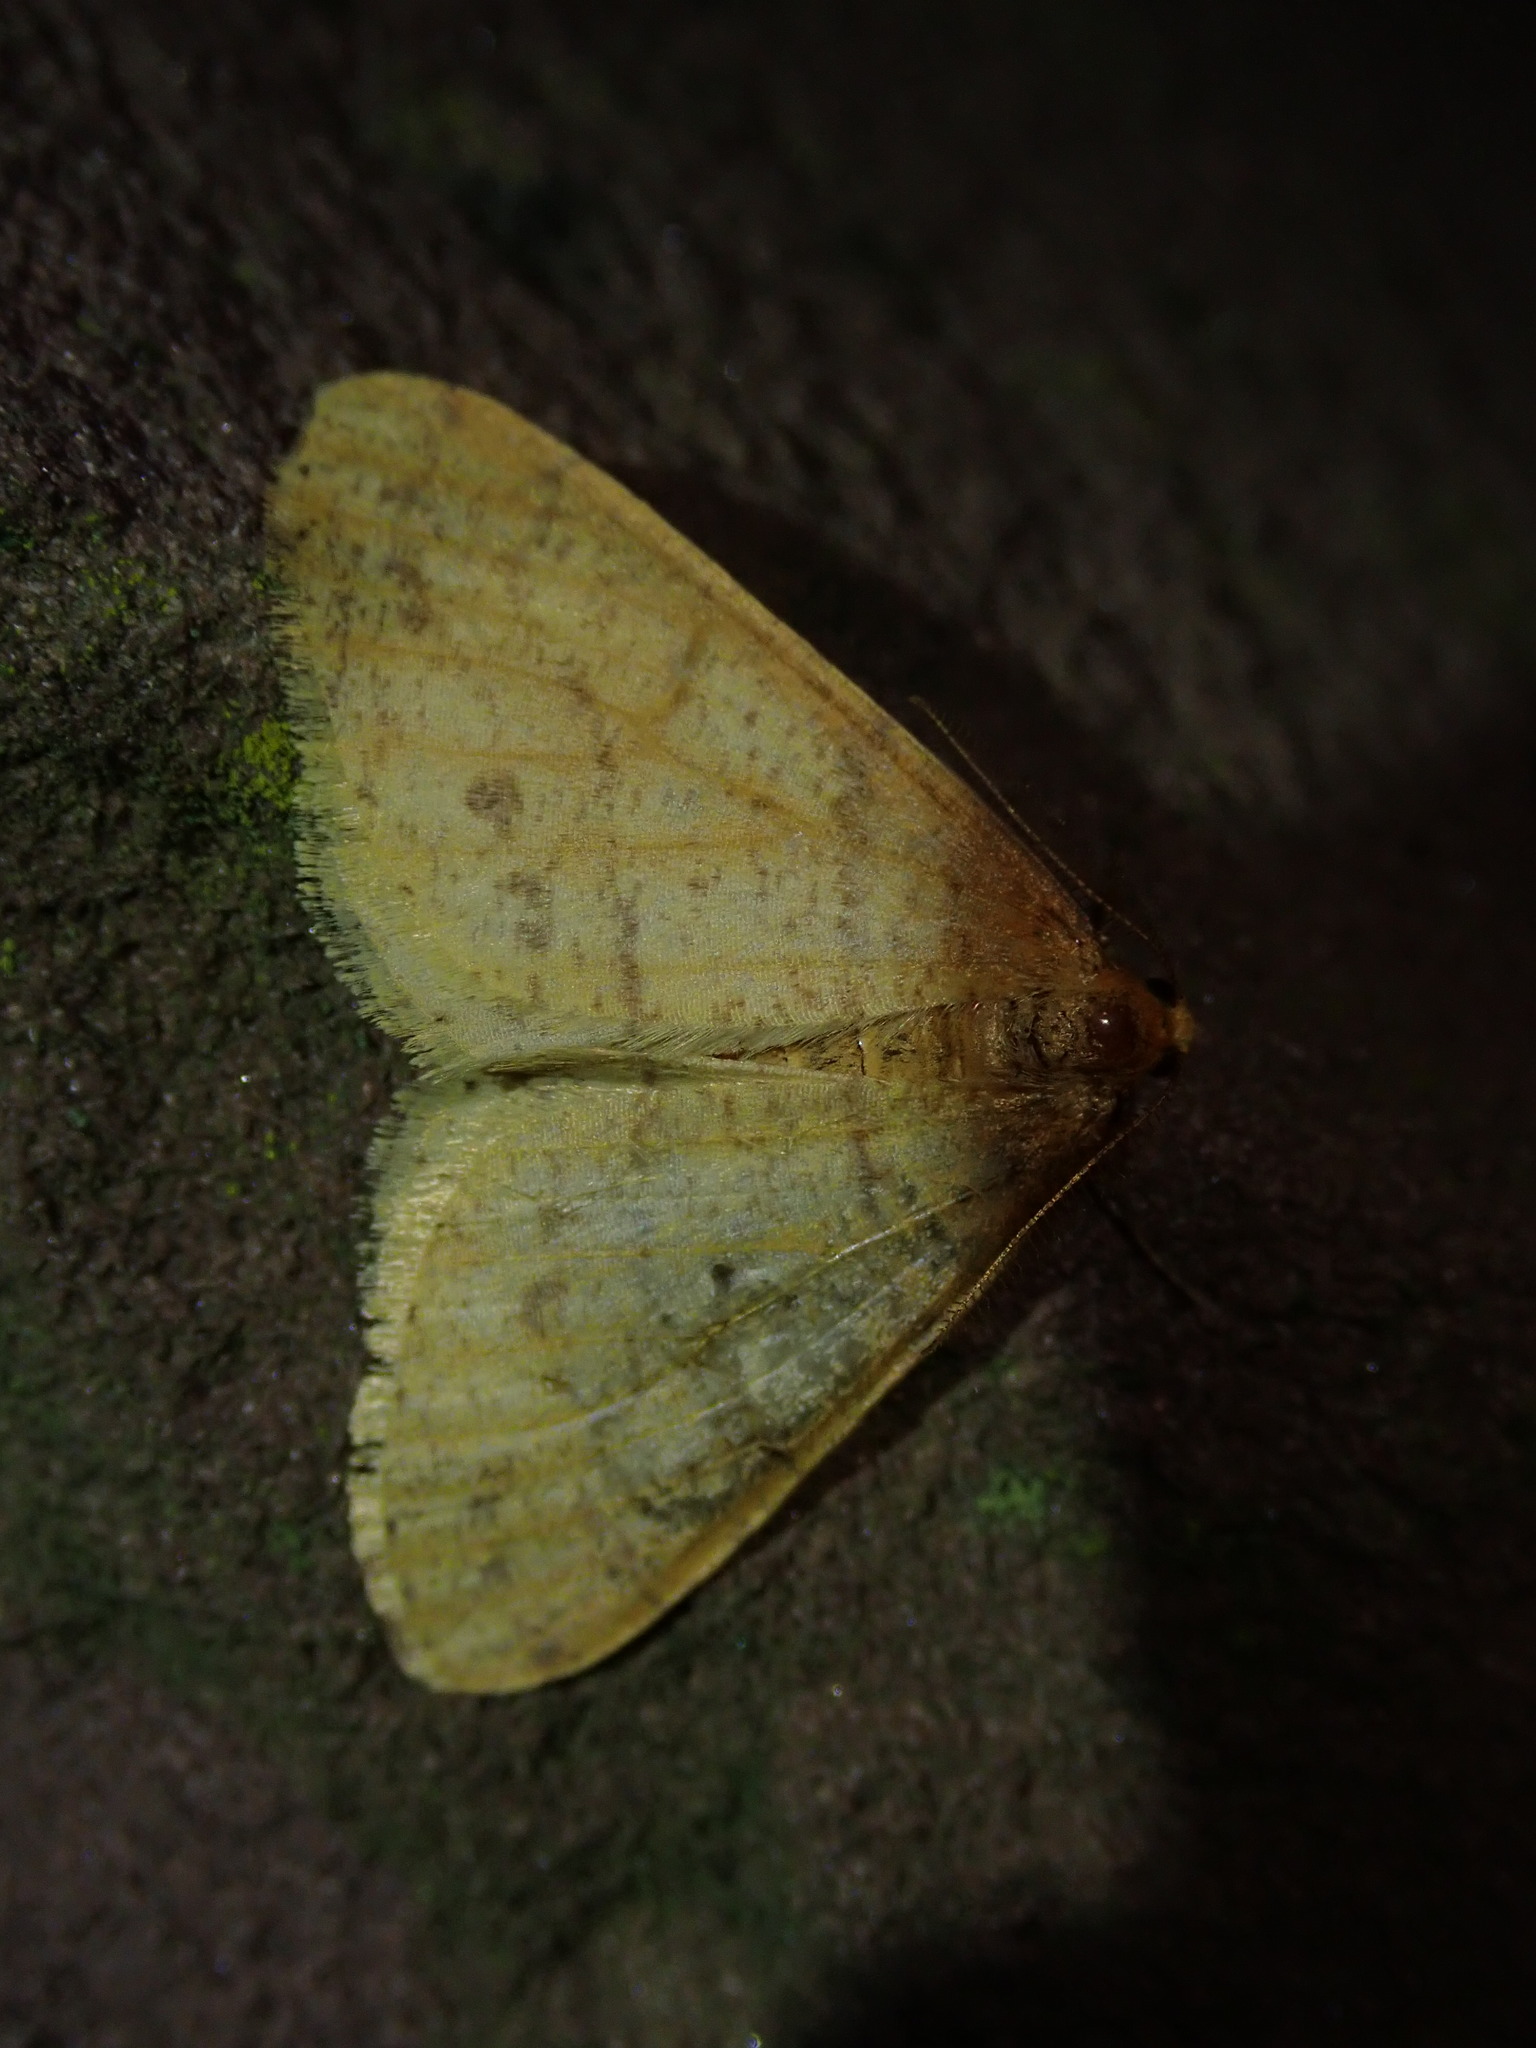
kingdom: Animalia
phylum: Arthropoda
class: Insecta
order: Lepidoptera
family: Geometridae
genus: Agriopis
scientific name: Agriopis aurantiaria
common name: Scarce umber
